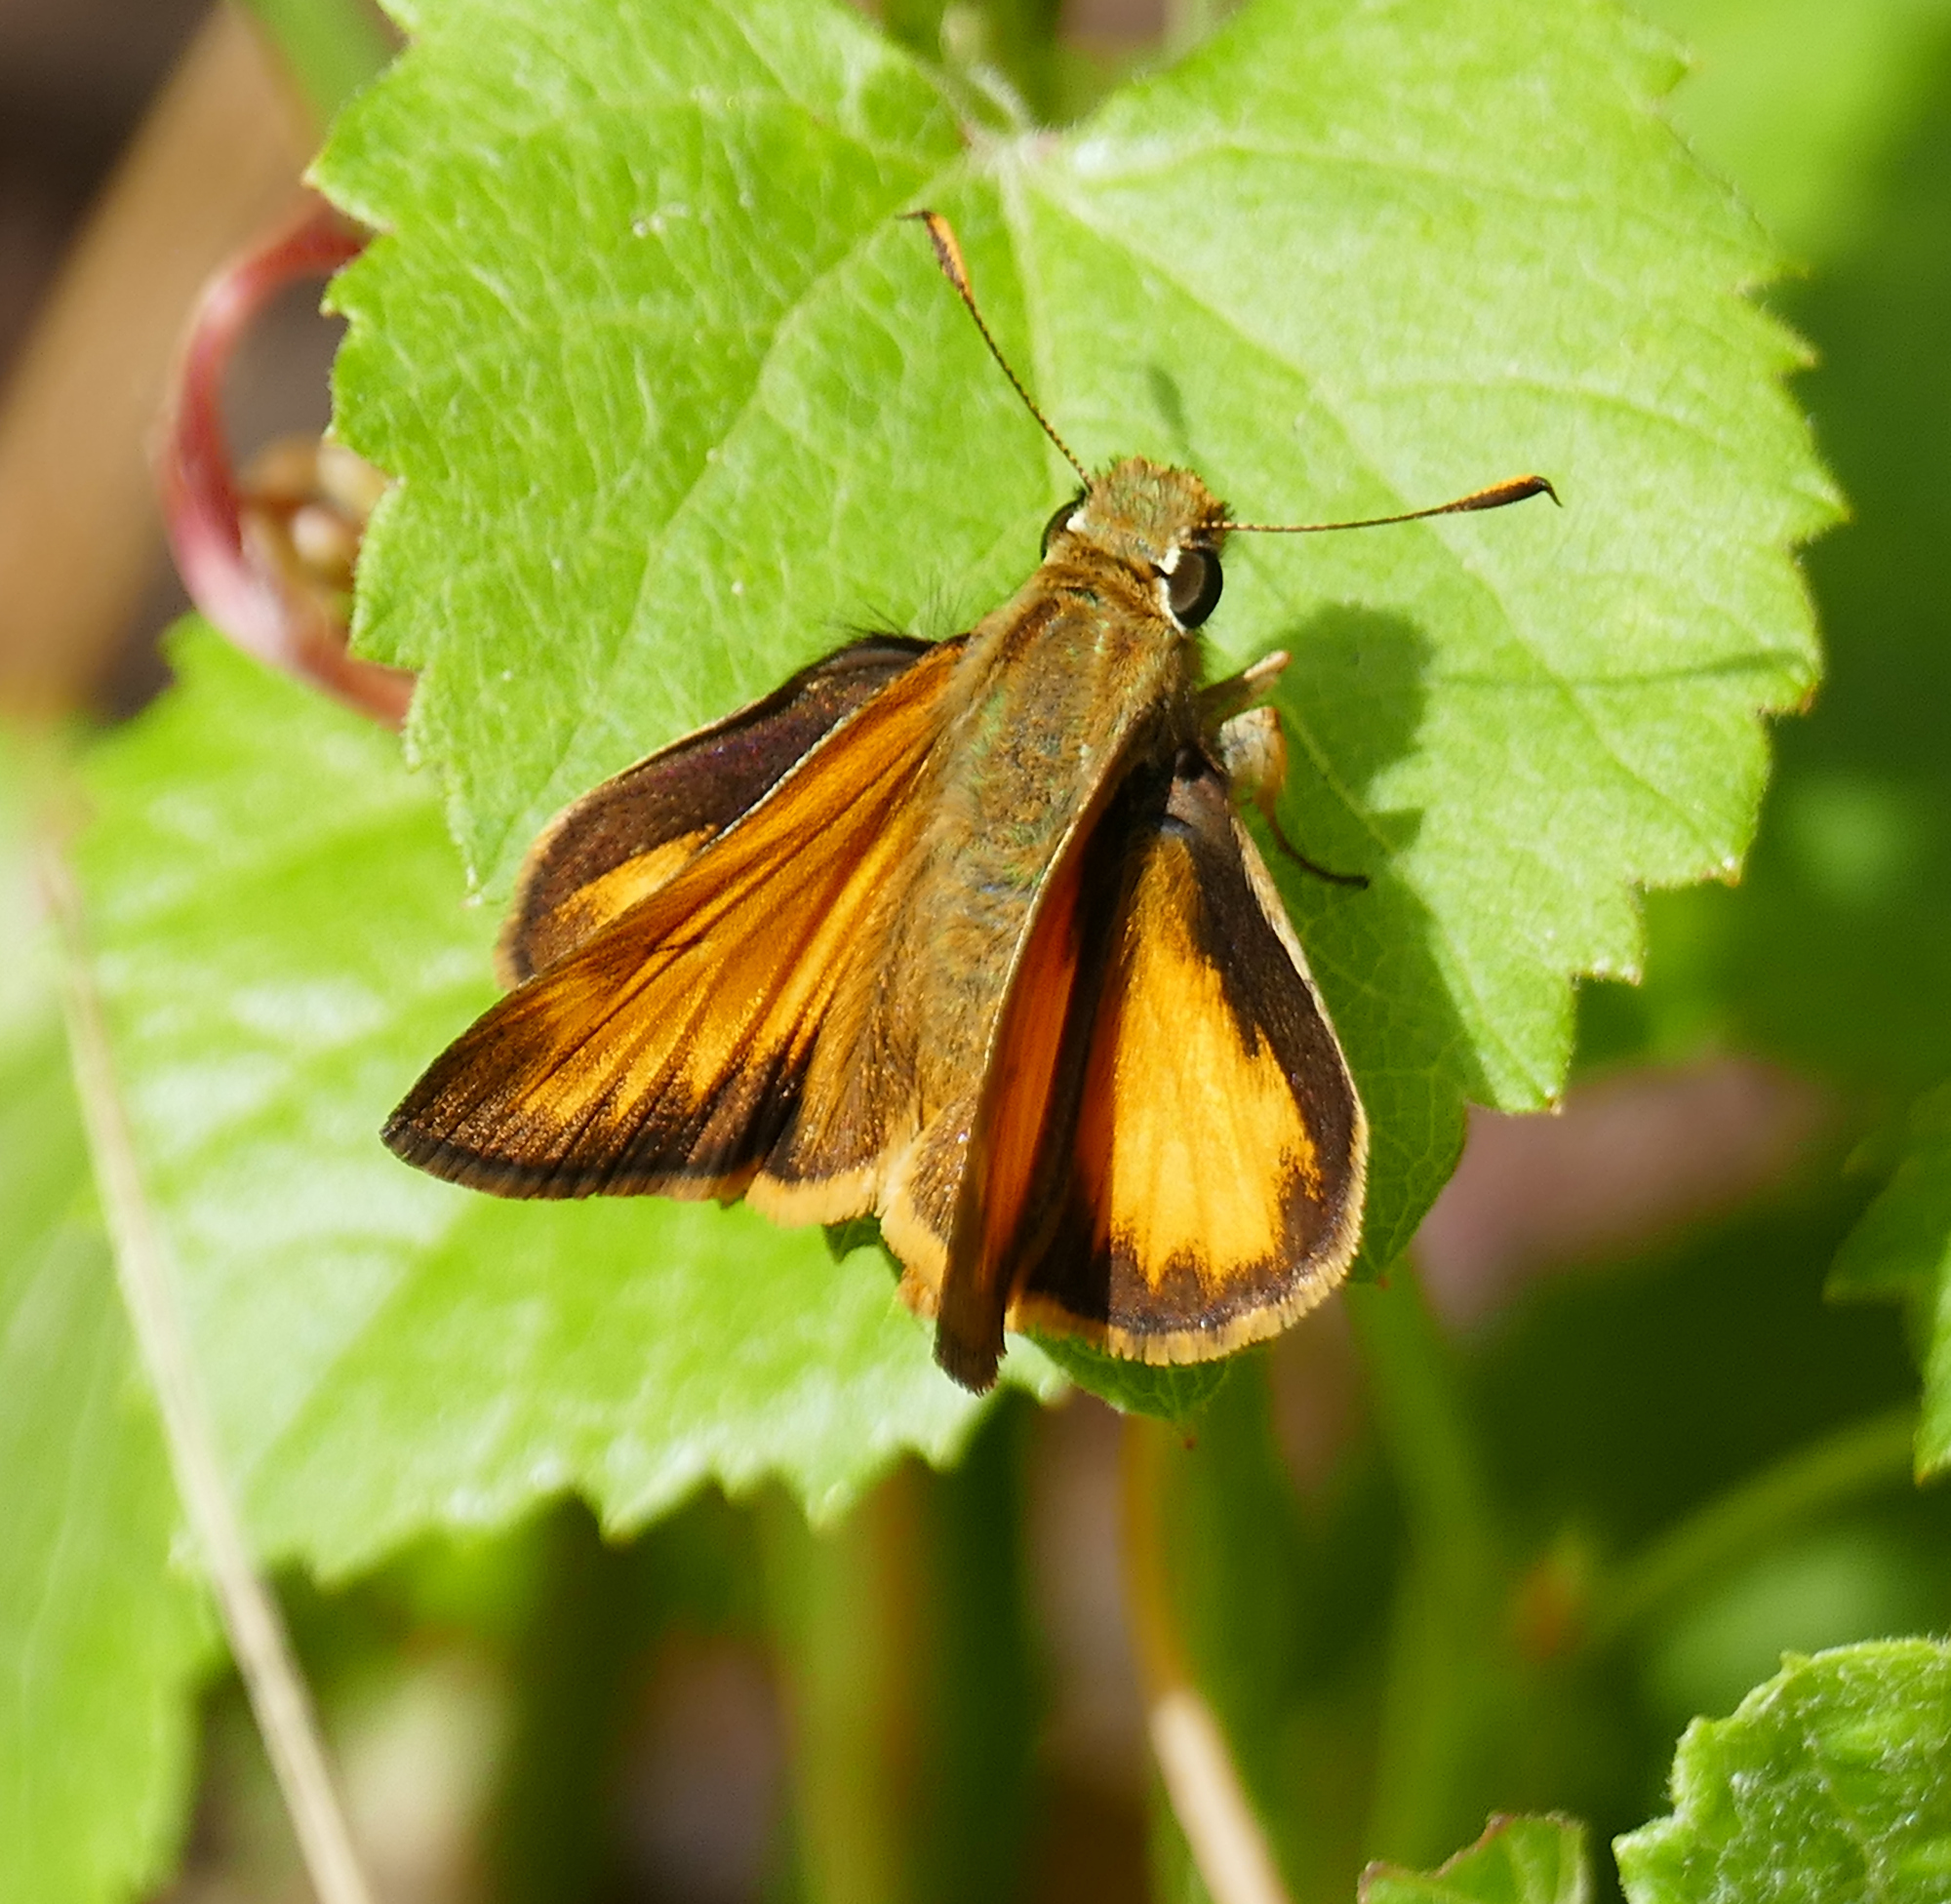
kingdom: Animalia
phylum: Arthropoda
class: Insecta
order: Lepidoptera
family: Hesperiidae
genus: Lon
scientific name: Lon taxiles
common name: Taxiles skipper
